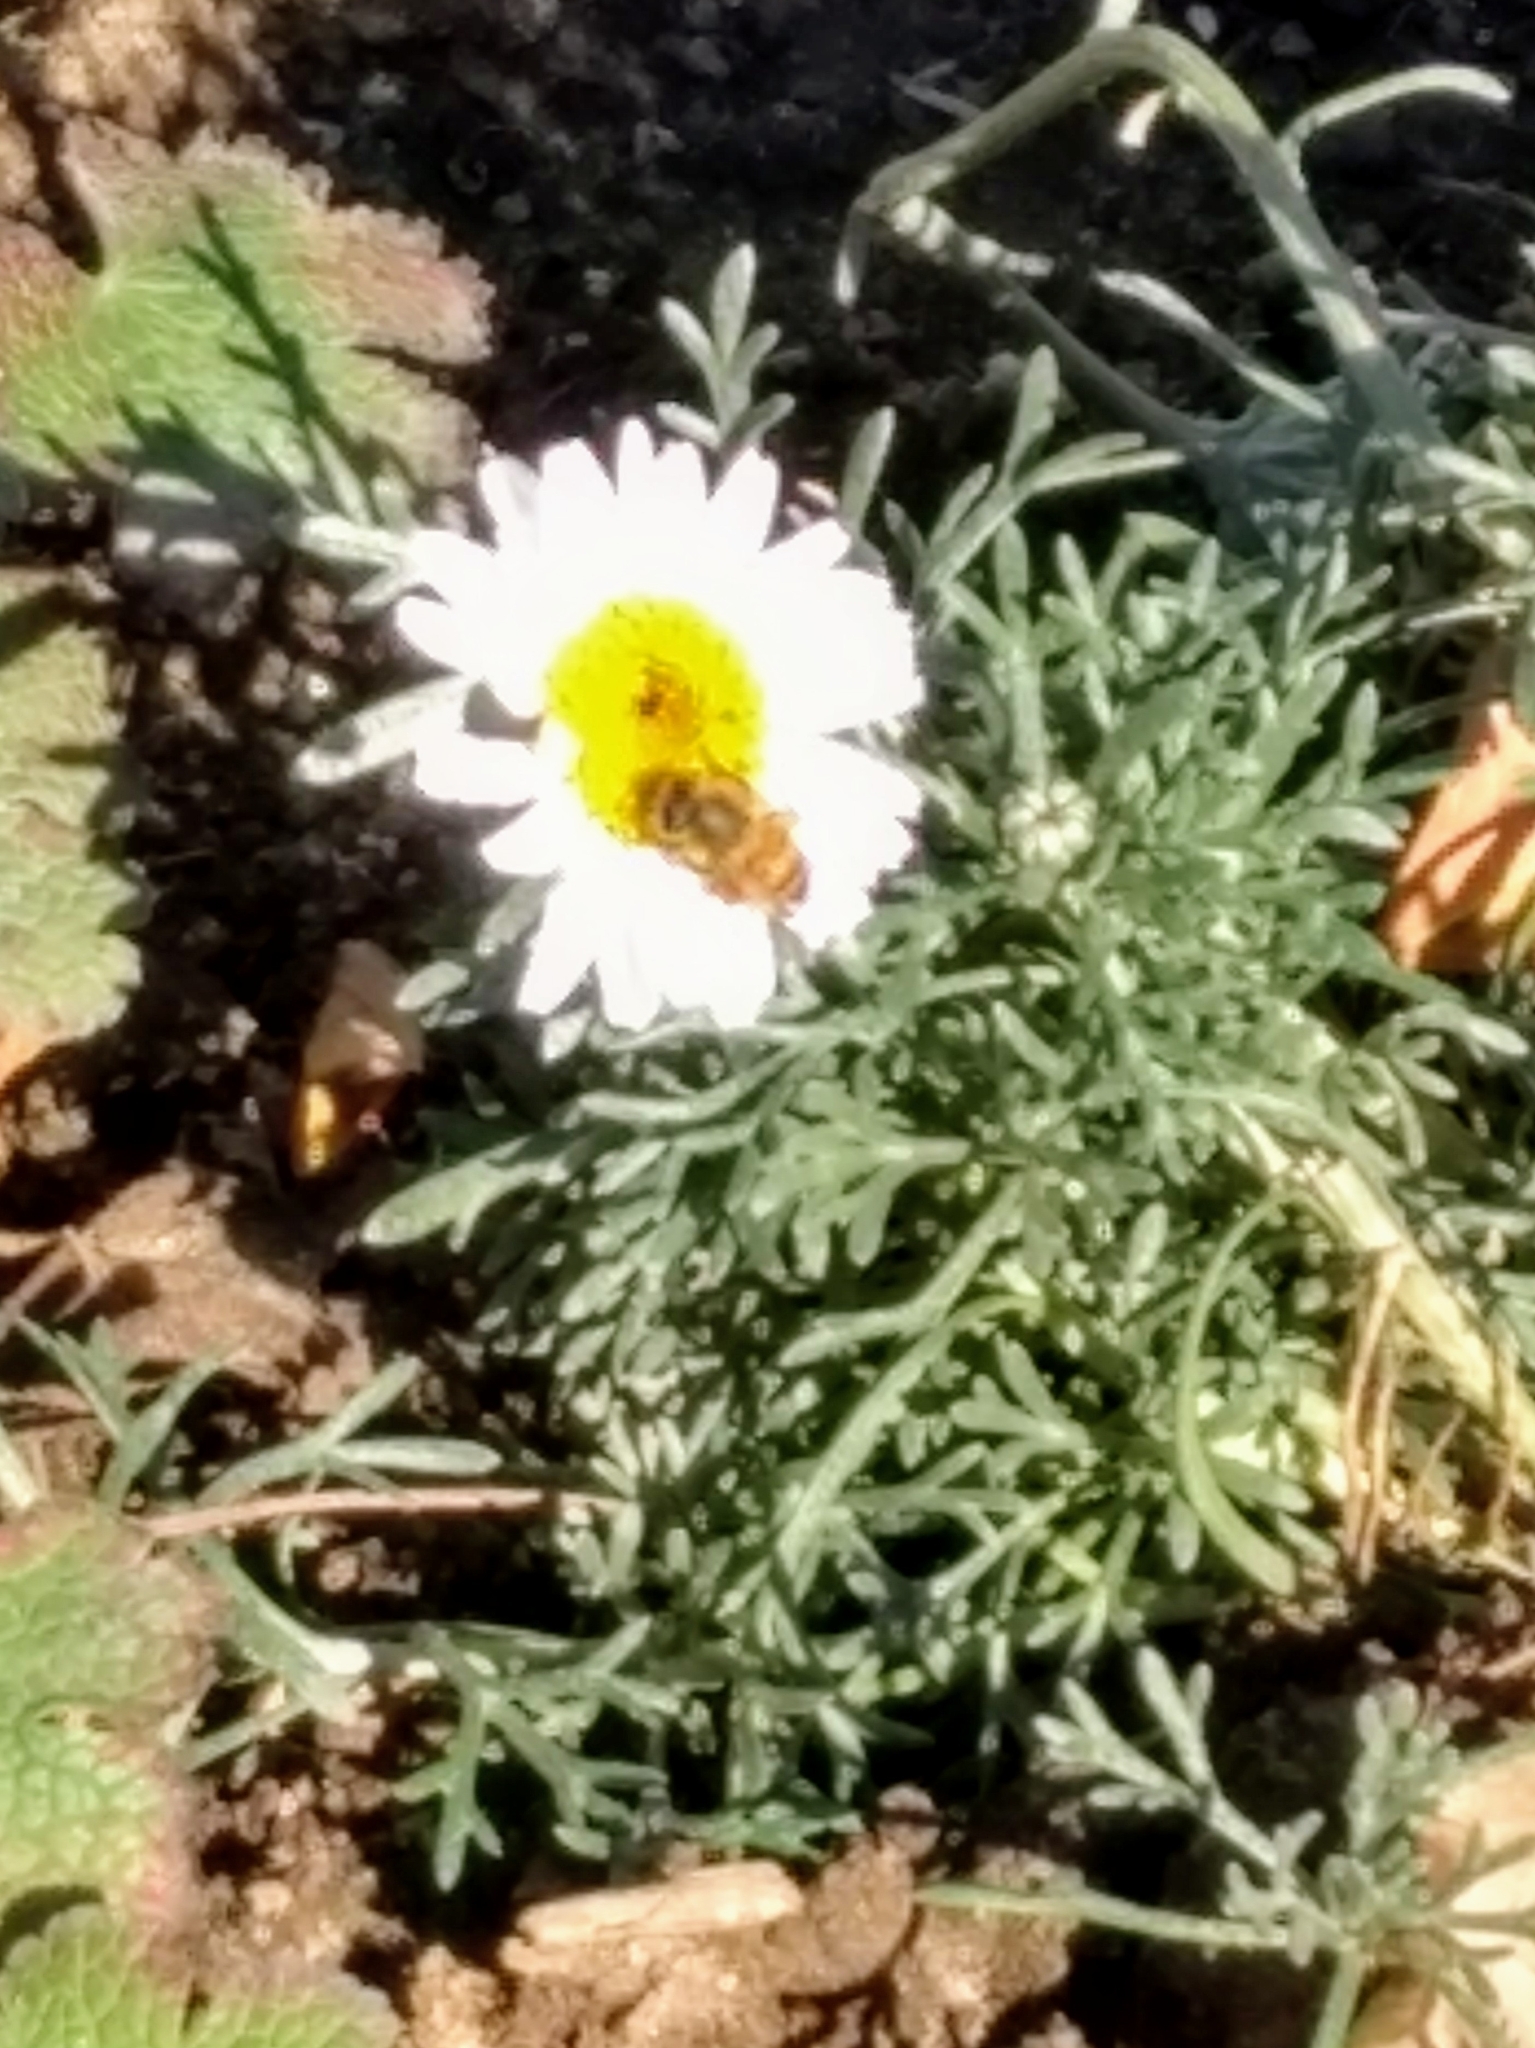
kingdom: Animalia
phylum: Arthropoda
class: Insecta
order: Hymenoptera
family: Apidae
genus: Apis
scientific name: Apis mellifera
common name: Honey bee
